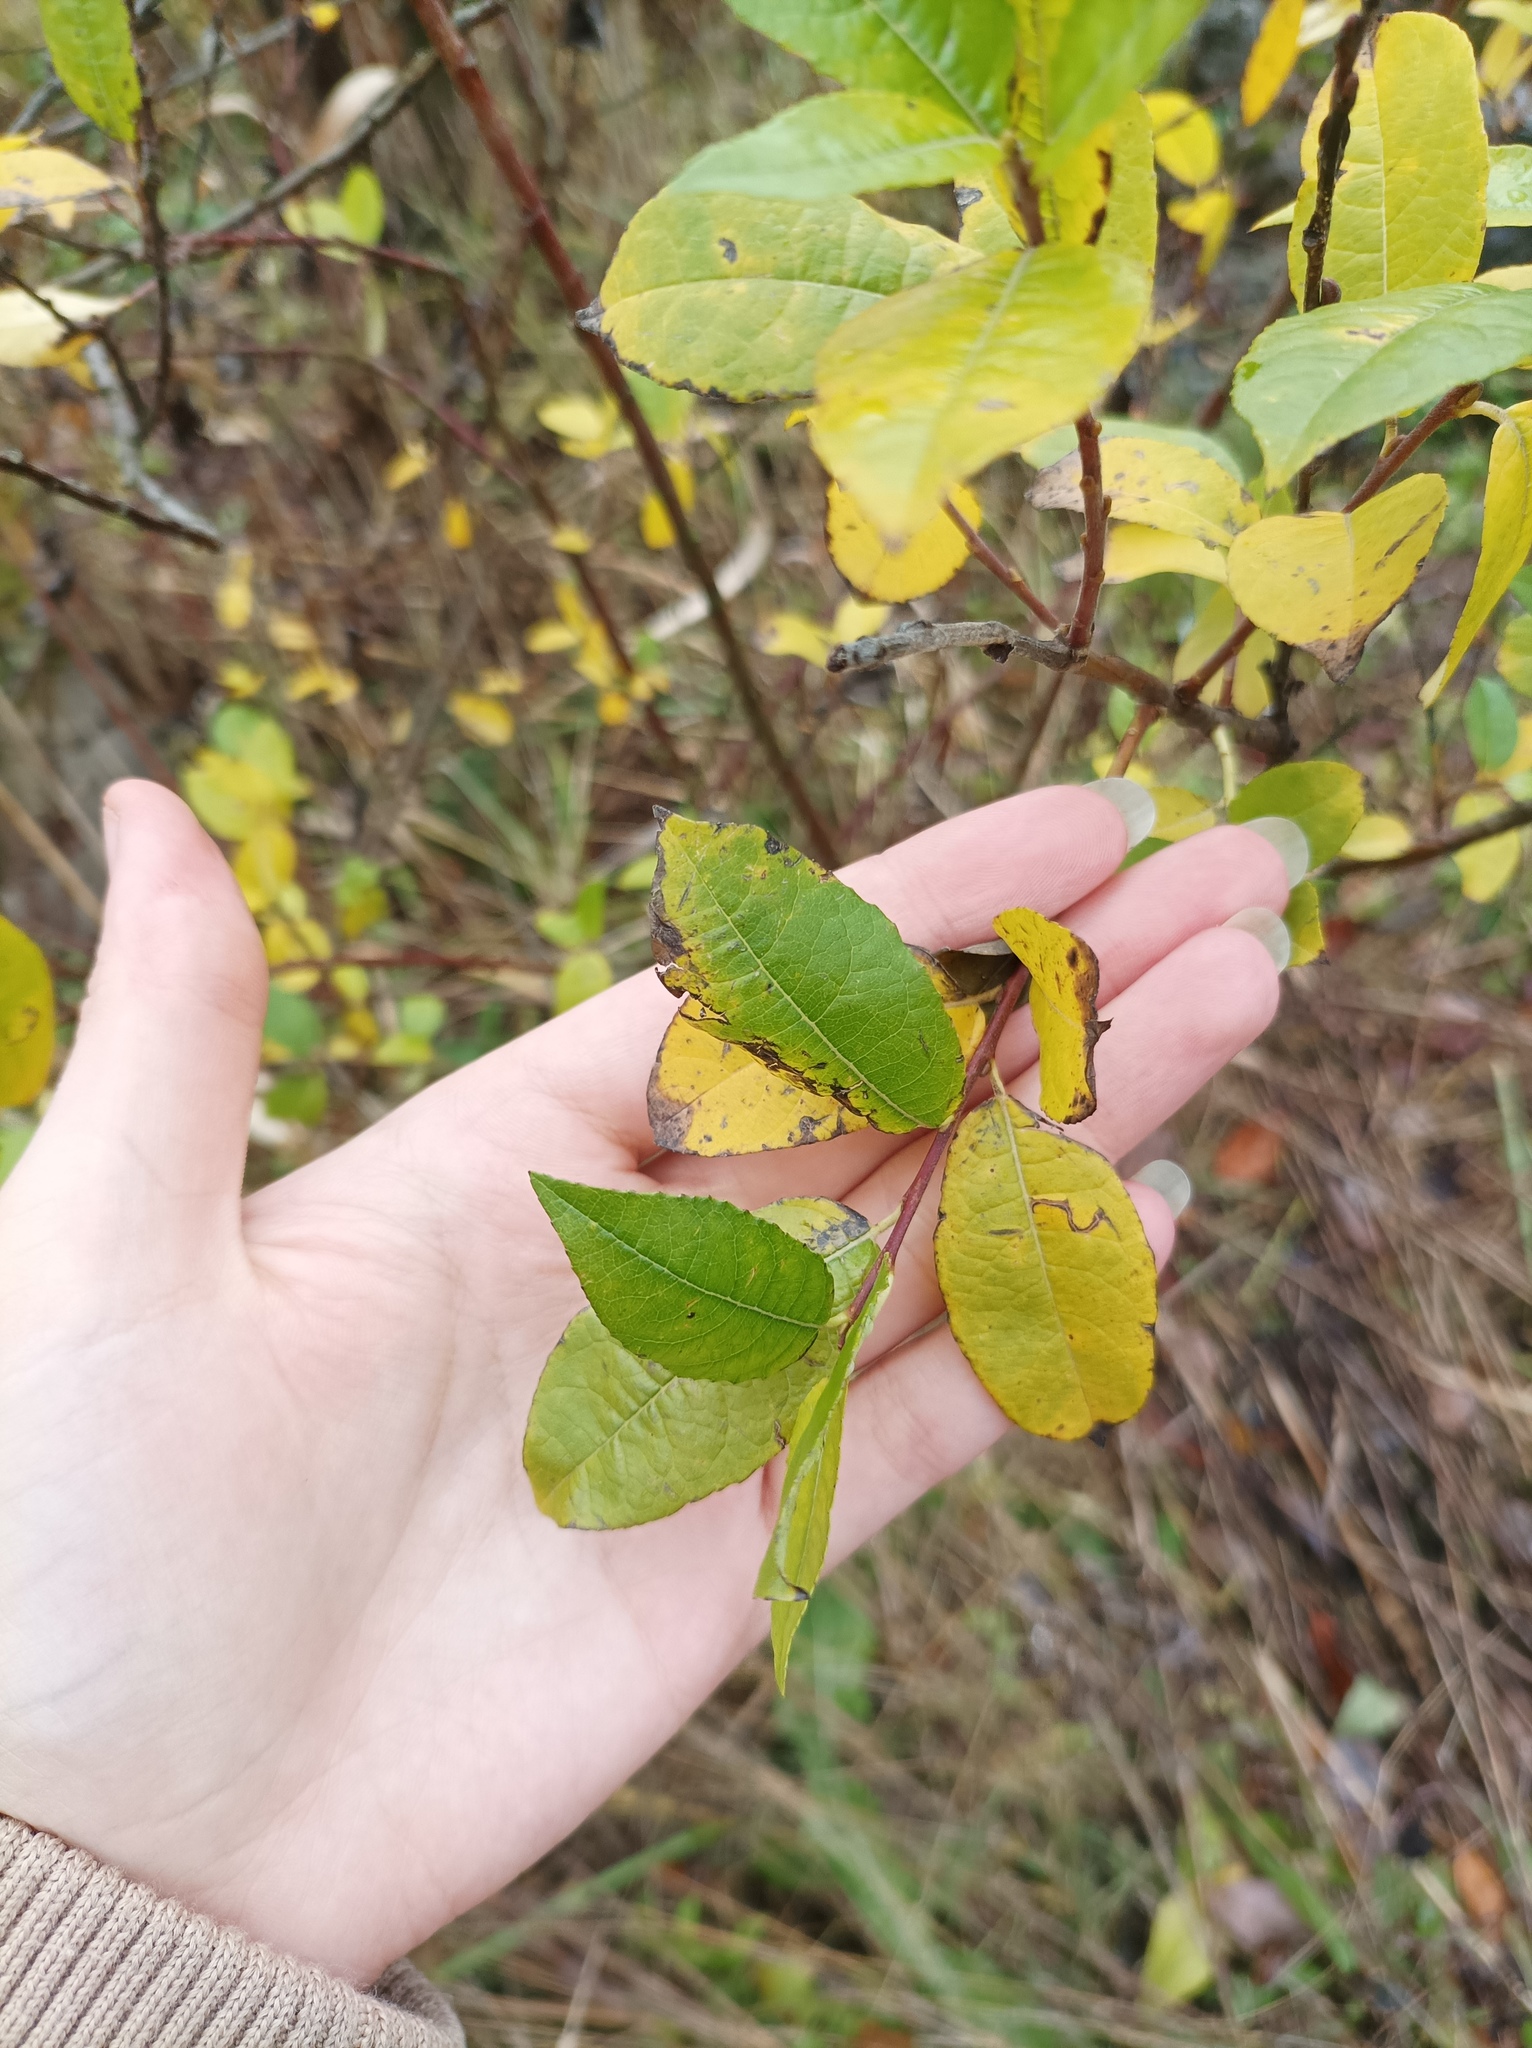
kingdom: Plantae
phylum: Tracheophyta
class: Magnoliopsida
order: Malpighiales
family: Salicaceae
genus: Salix
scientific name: Salix myrsinifolia
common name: Dark-leaved willow
